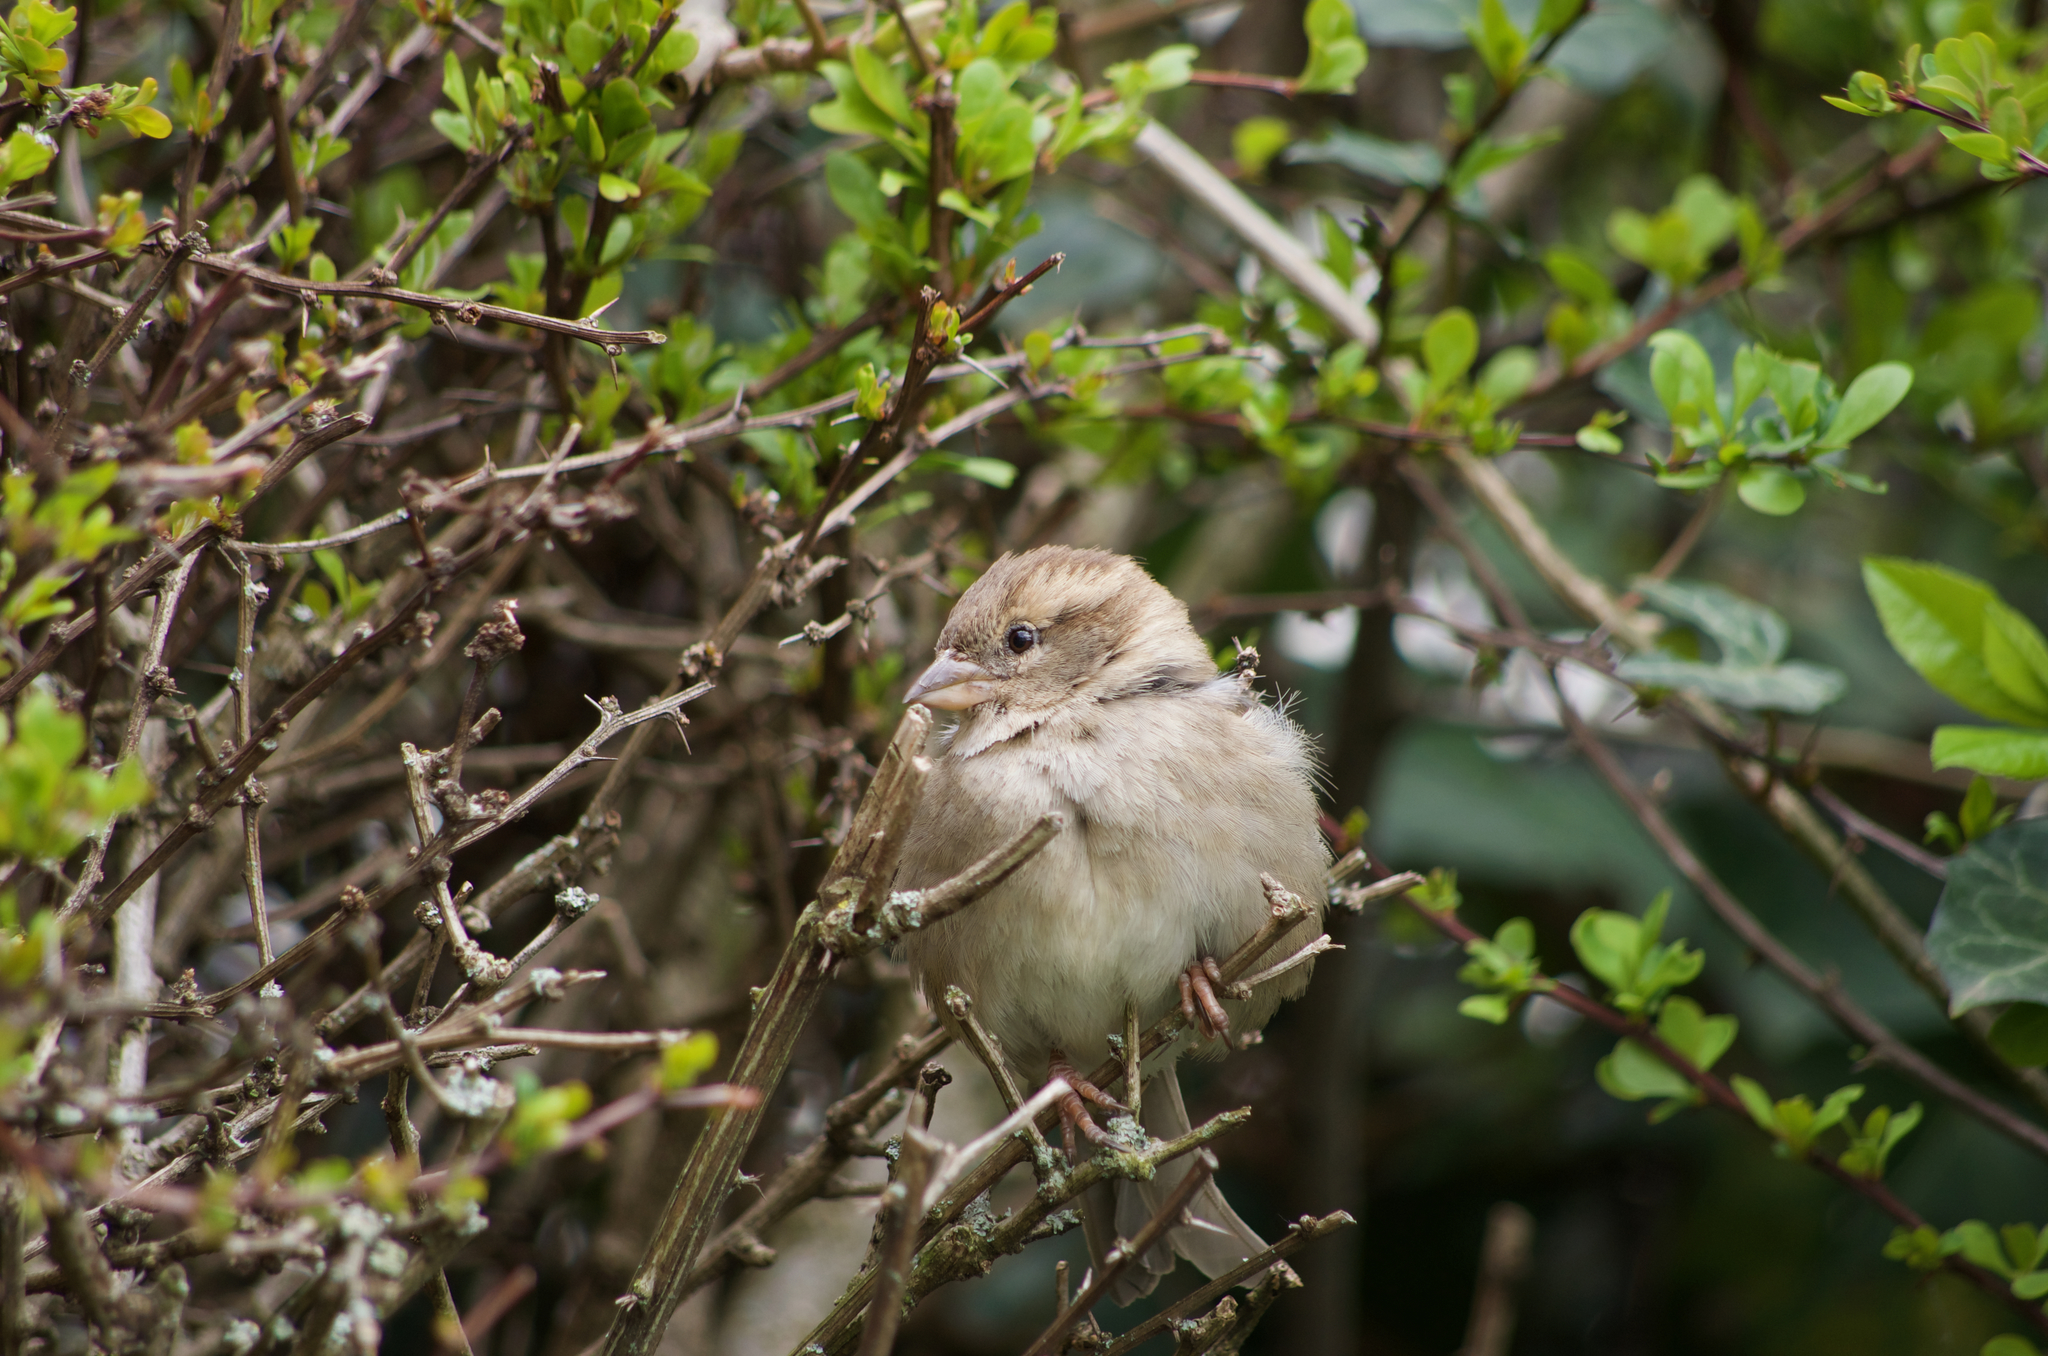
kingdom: Animalia
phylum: Chordata
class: Aves
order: Passeriformes
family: Passeridae
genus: Passer
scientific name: Passer domesticus
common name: House sparrow
